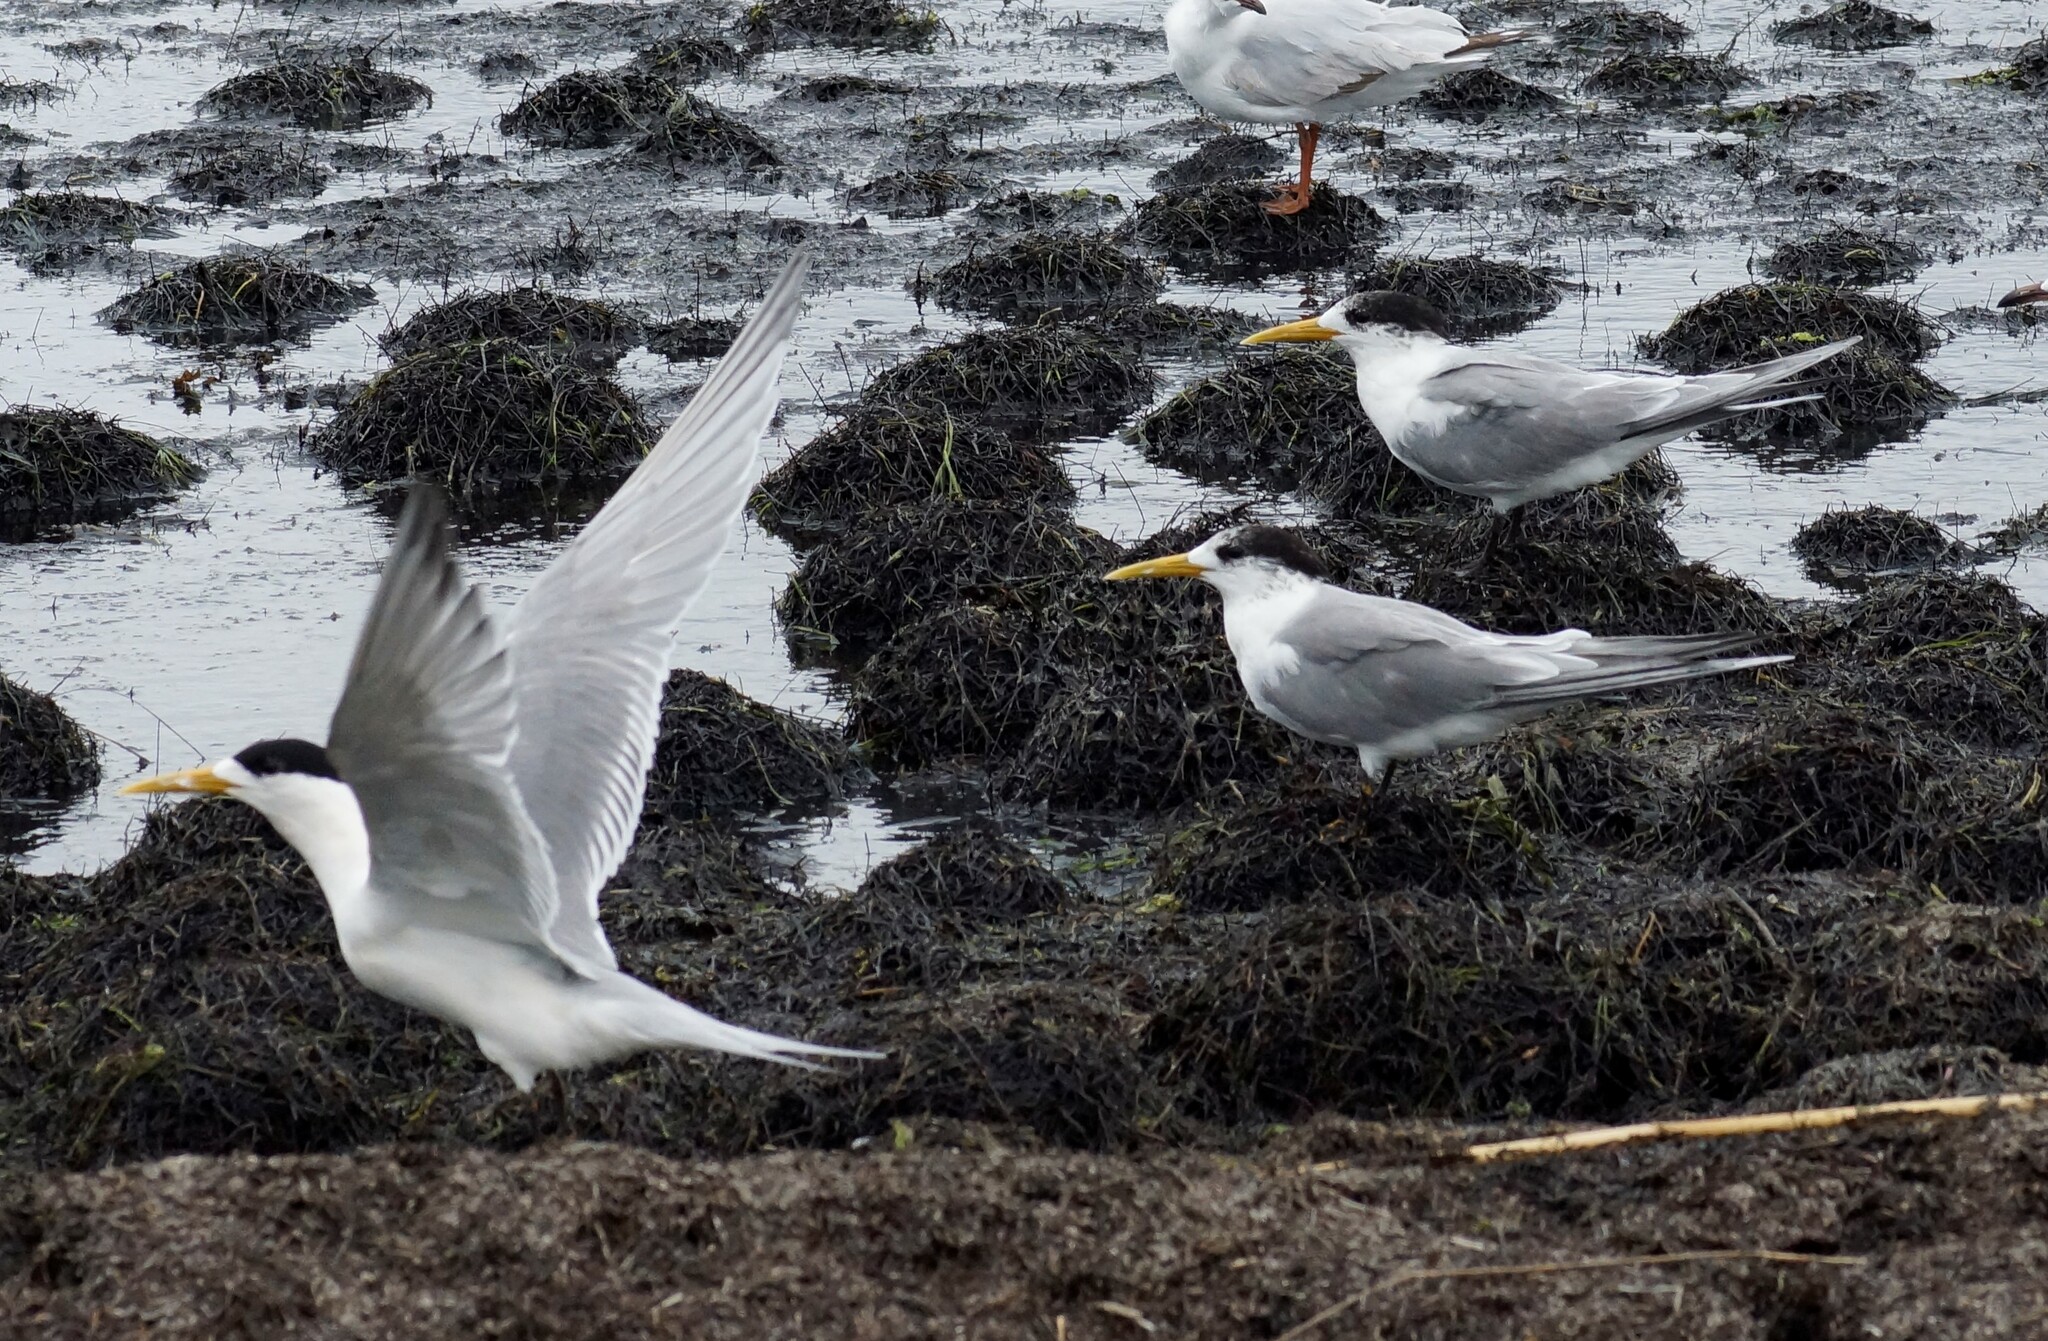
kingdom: Animalia
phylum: Chordata
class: Aves
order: Charadriiformes
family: Laridae
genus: Thalasseus
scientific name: Thalasseus bergii
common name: Greater crested tern
